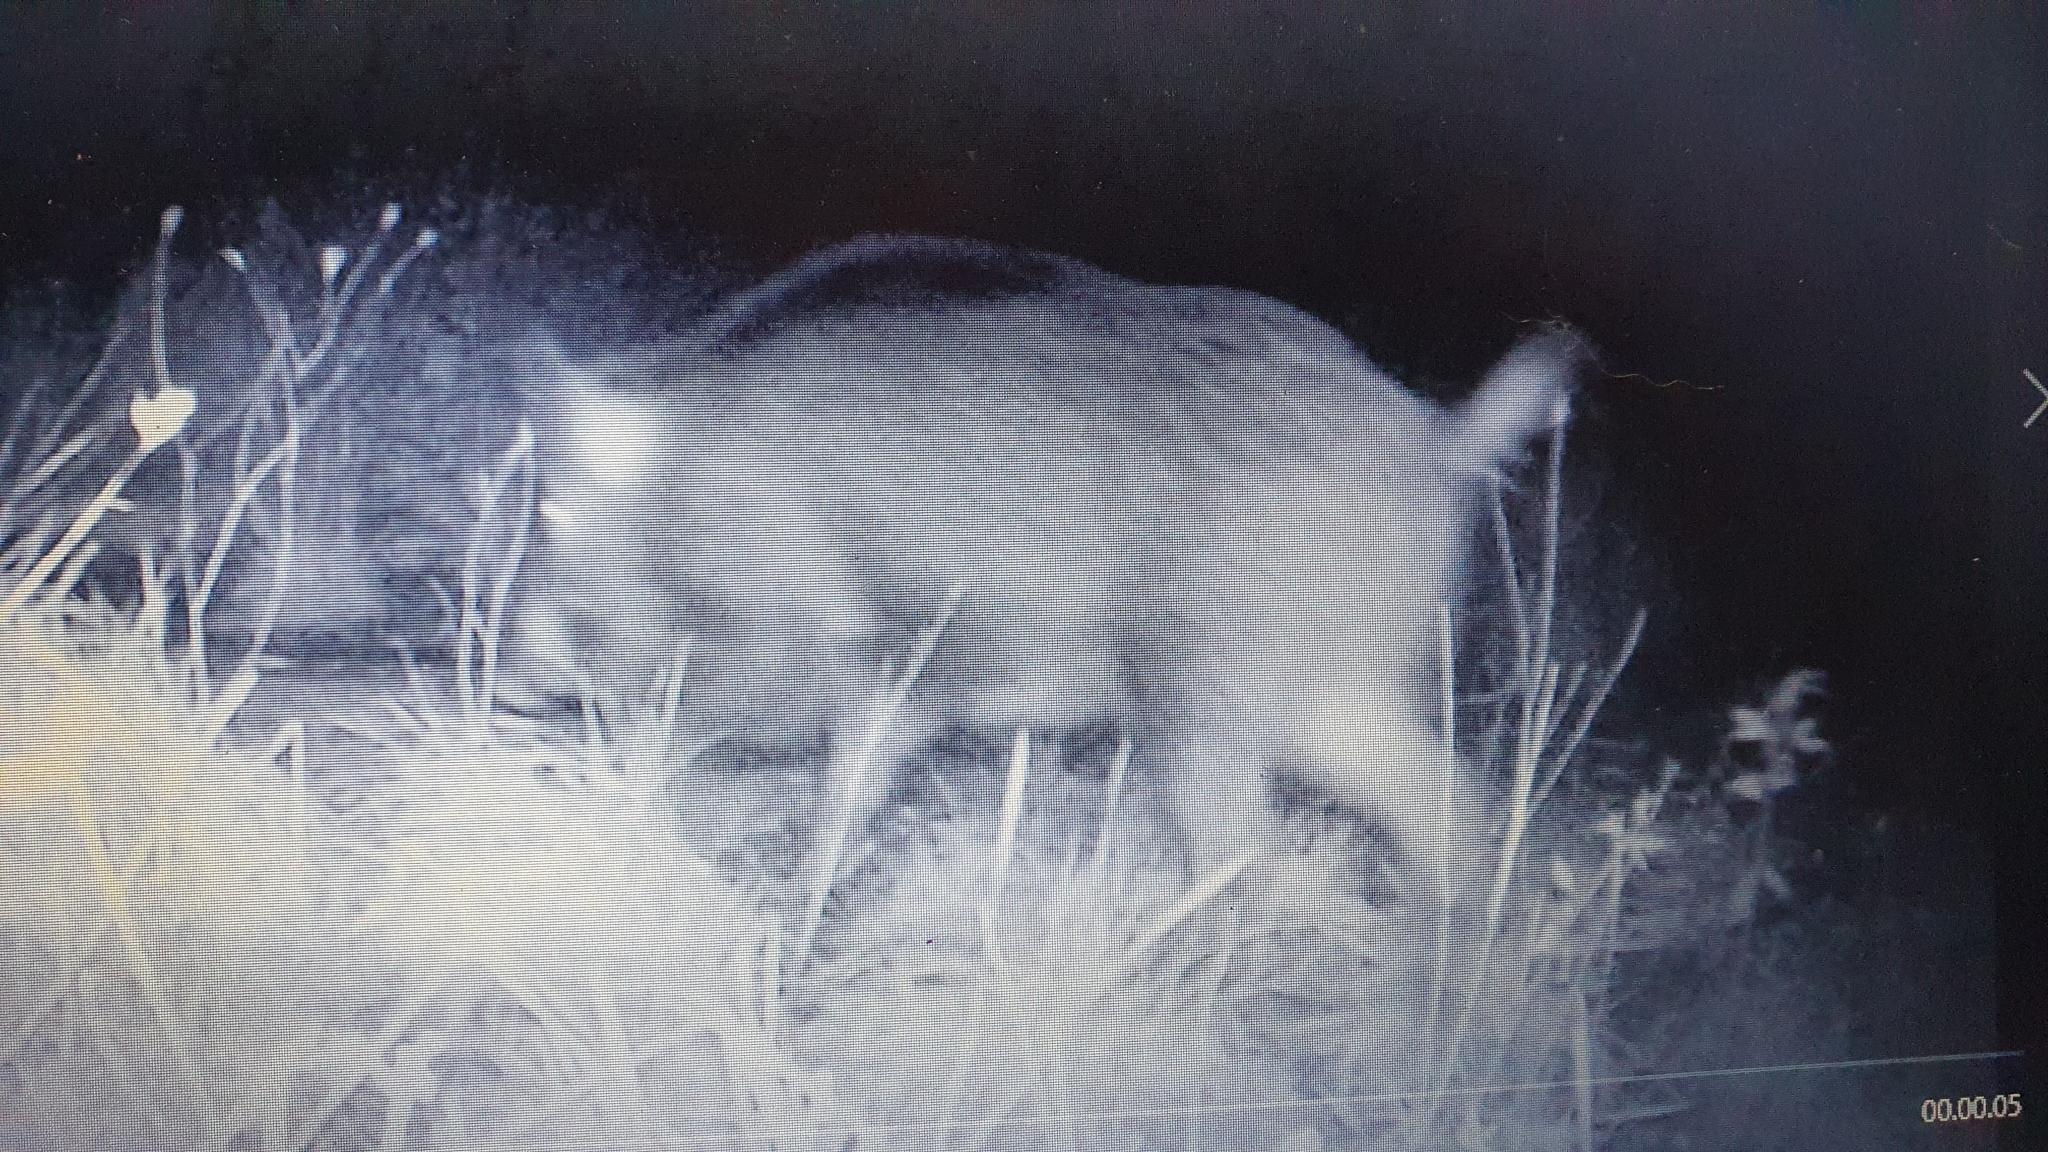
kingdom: Animalia
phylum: Chordata
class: Mammalia
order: Artiodactyla
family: Suidae
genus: Sus
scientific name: Sus scrofa
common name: Wild boar
